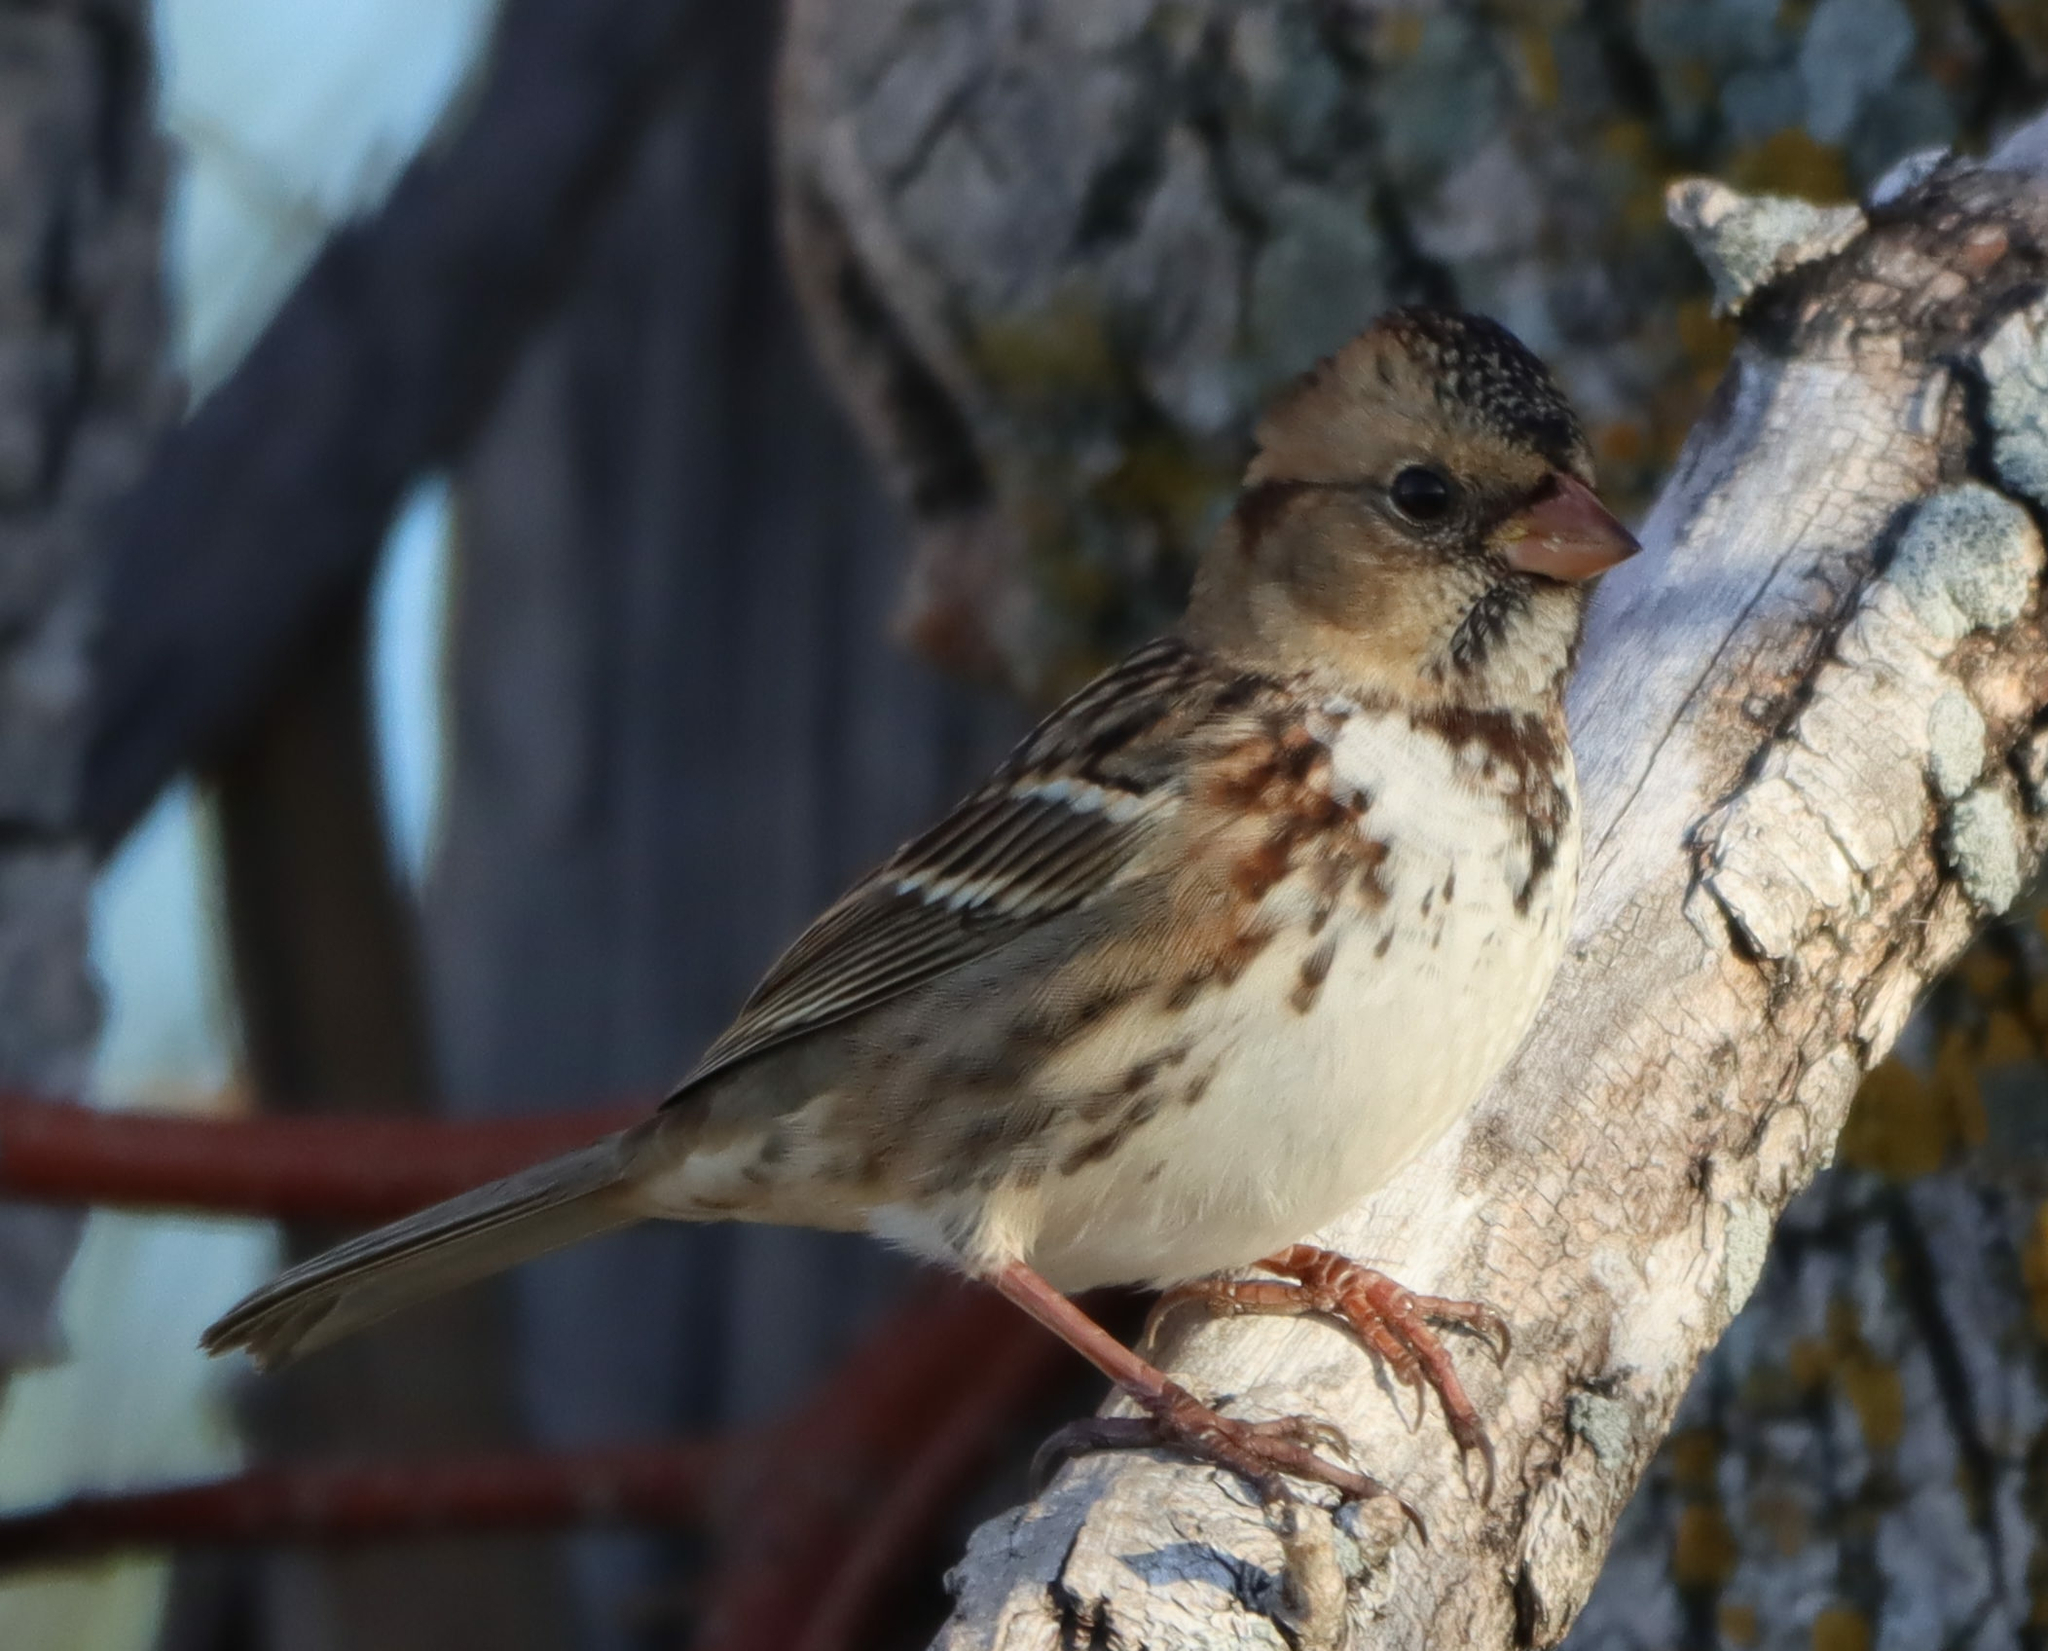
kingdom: Animalia
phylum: Chordata
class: Aves
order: Passeriformes
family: Passerellidae
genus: Zonotrichia
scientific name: Zonotrichia querula
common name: Harris's sparrow
